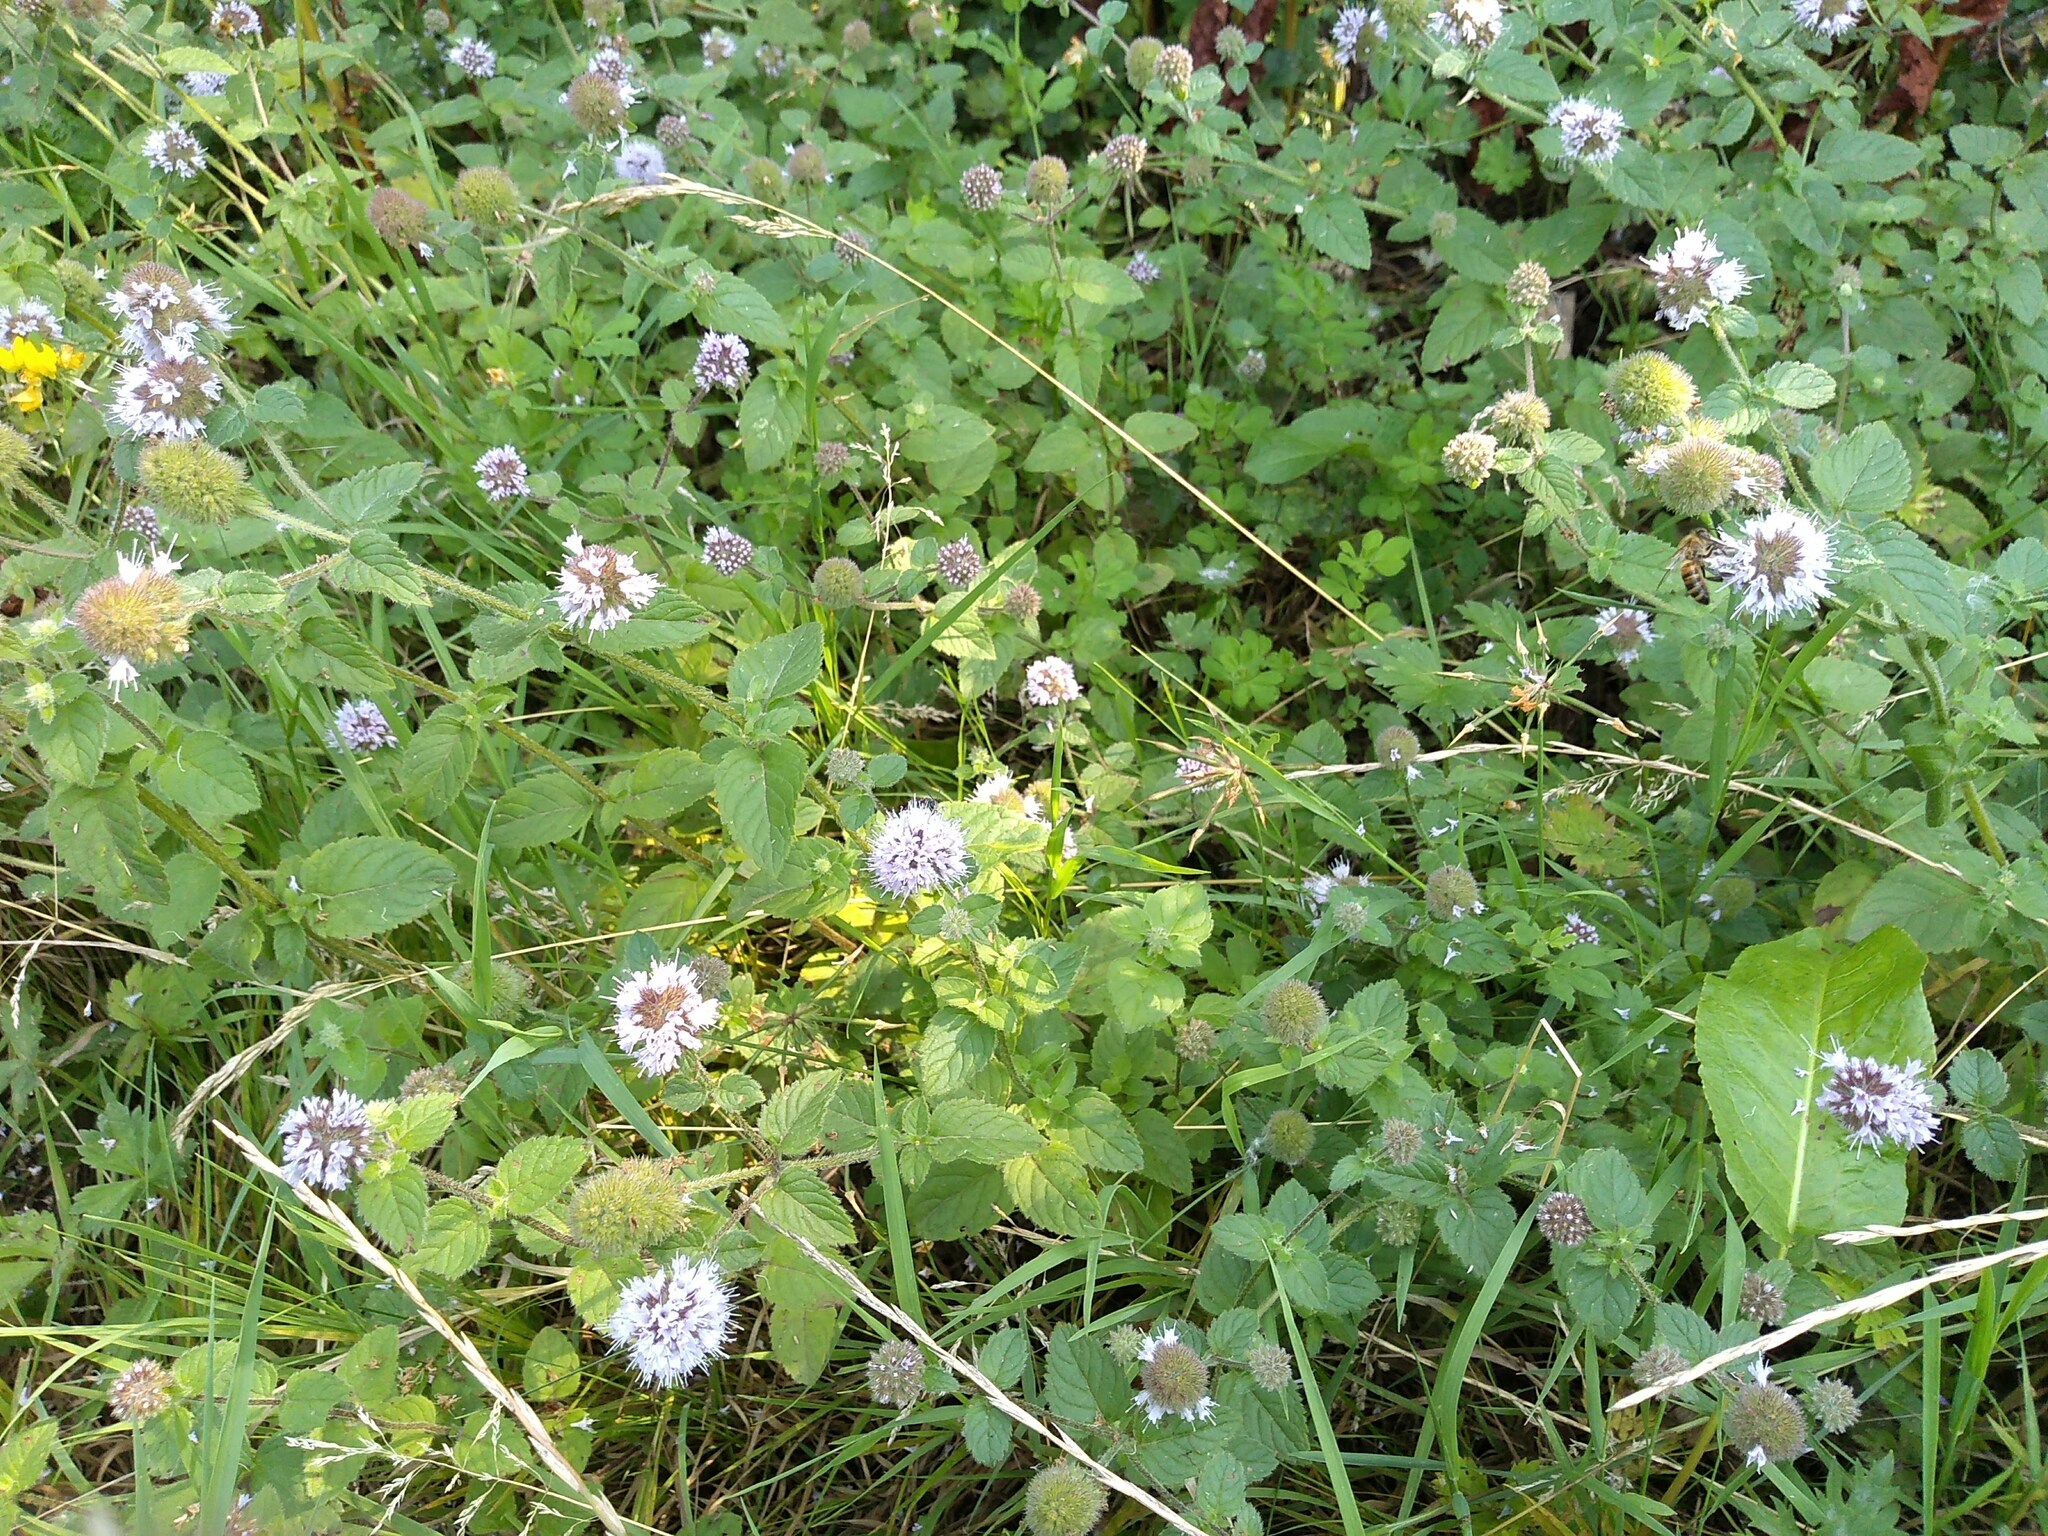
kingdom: Plantae
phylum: Tracheophyta
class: Magnoliopsida
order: Lamiales
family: Lamiaceae
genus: Mentha
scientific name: Mentha aquatica
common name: Water mint
